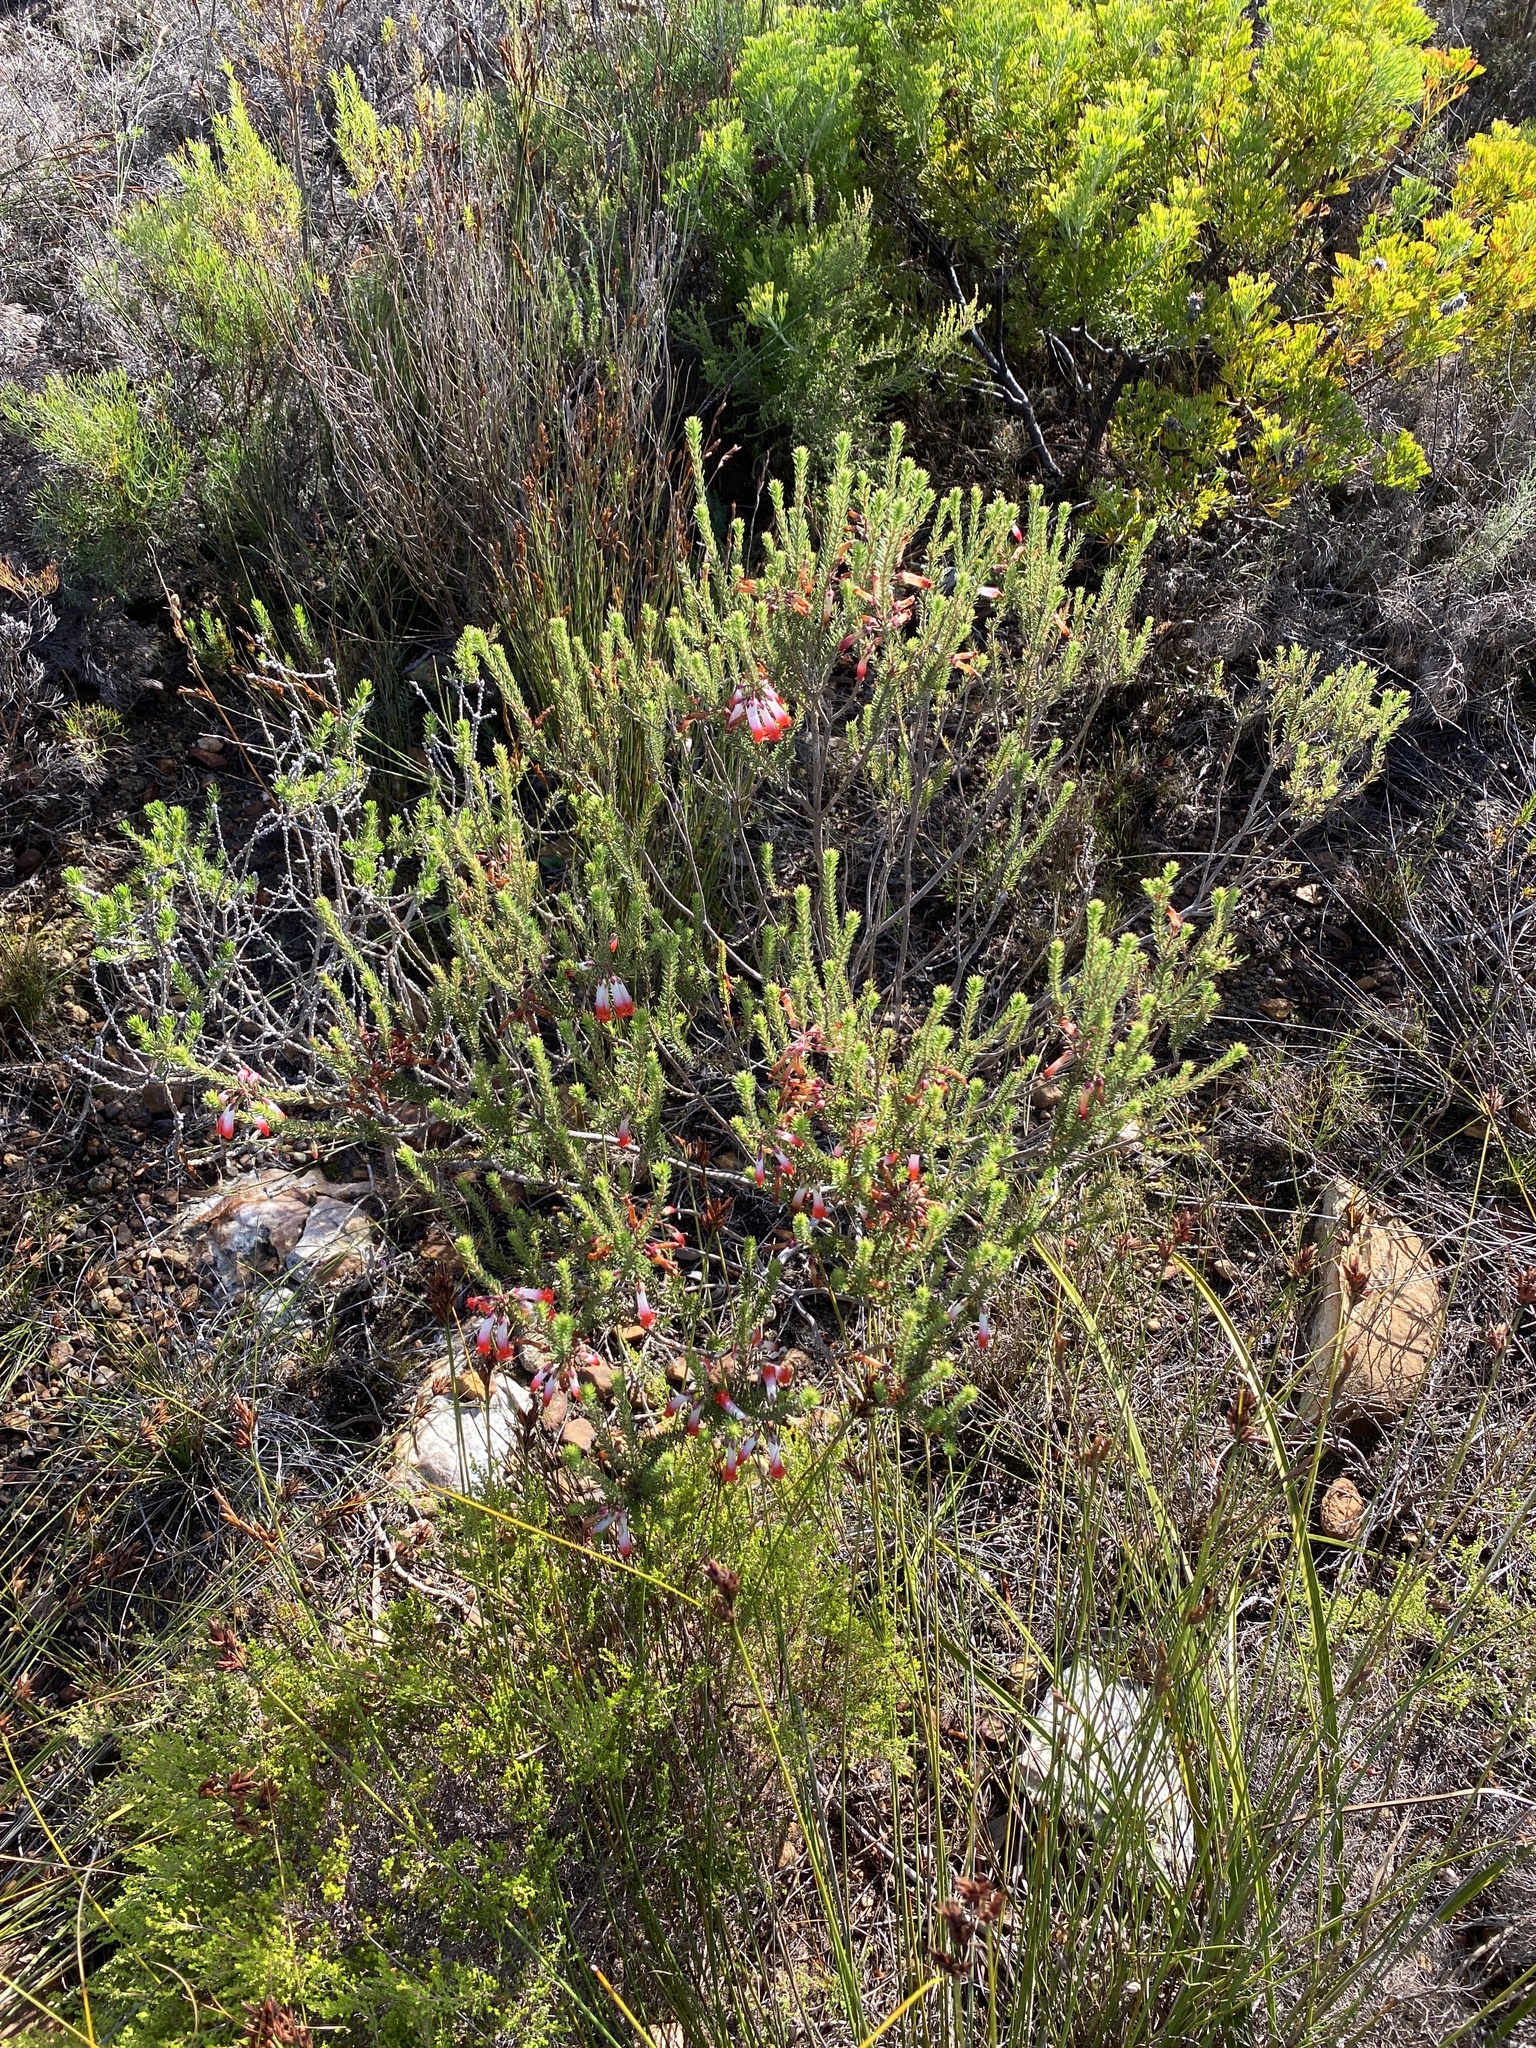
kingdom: Plantae
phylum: Tracheophyta
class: Magnoliopsida
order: Ericales
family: Ericaceae
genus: Erica
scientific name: Erica regia
